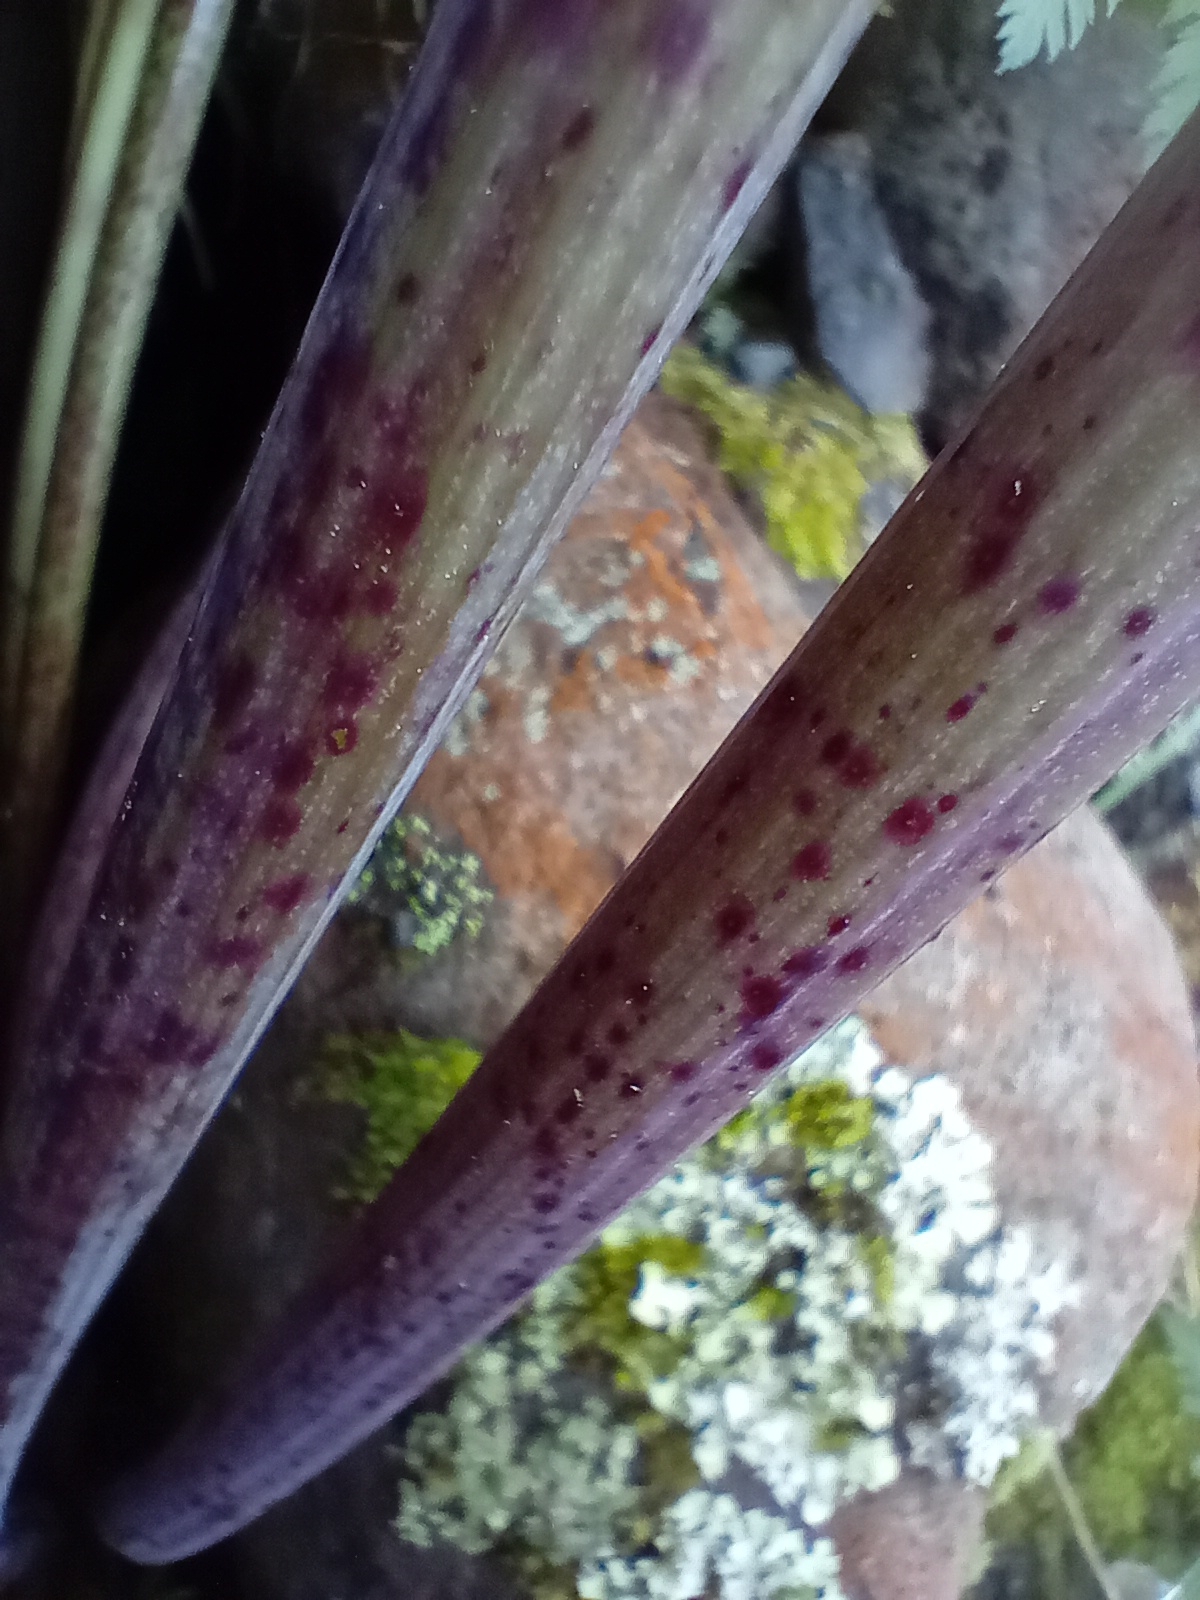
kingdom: Plantae
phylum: Tracheophyta
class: Magnoliopsida
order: Apiales
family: Apiaceae
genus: Conium
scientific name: Conium maculatum
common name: Hemlock
